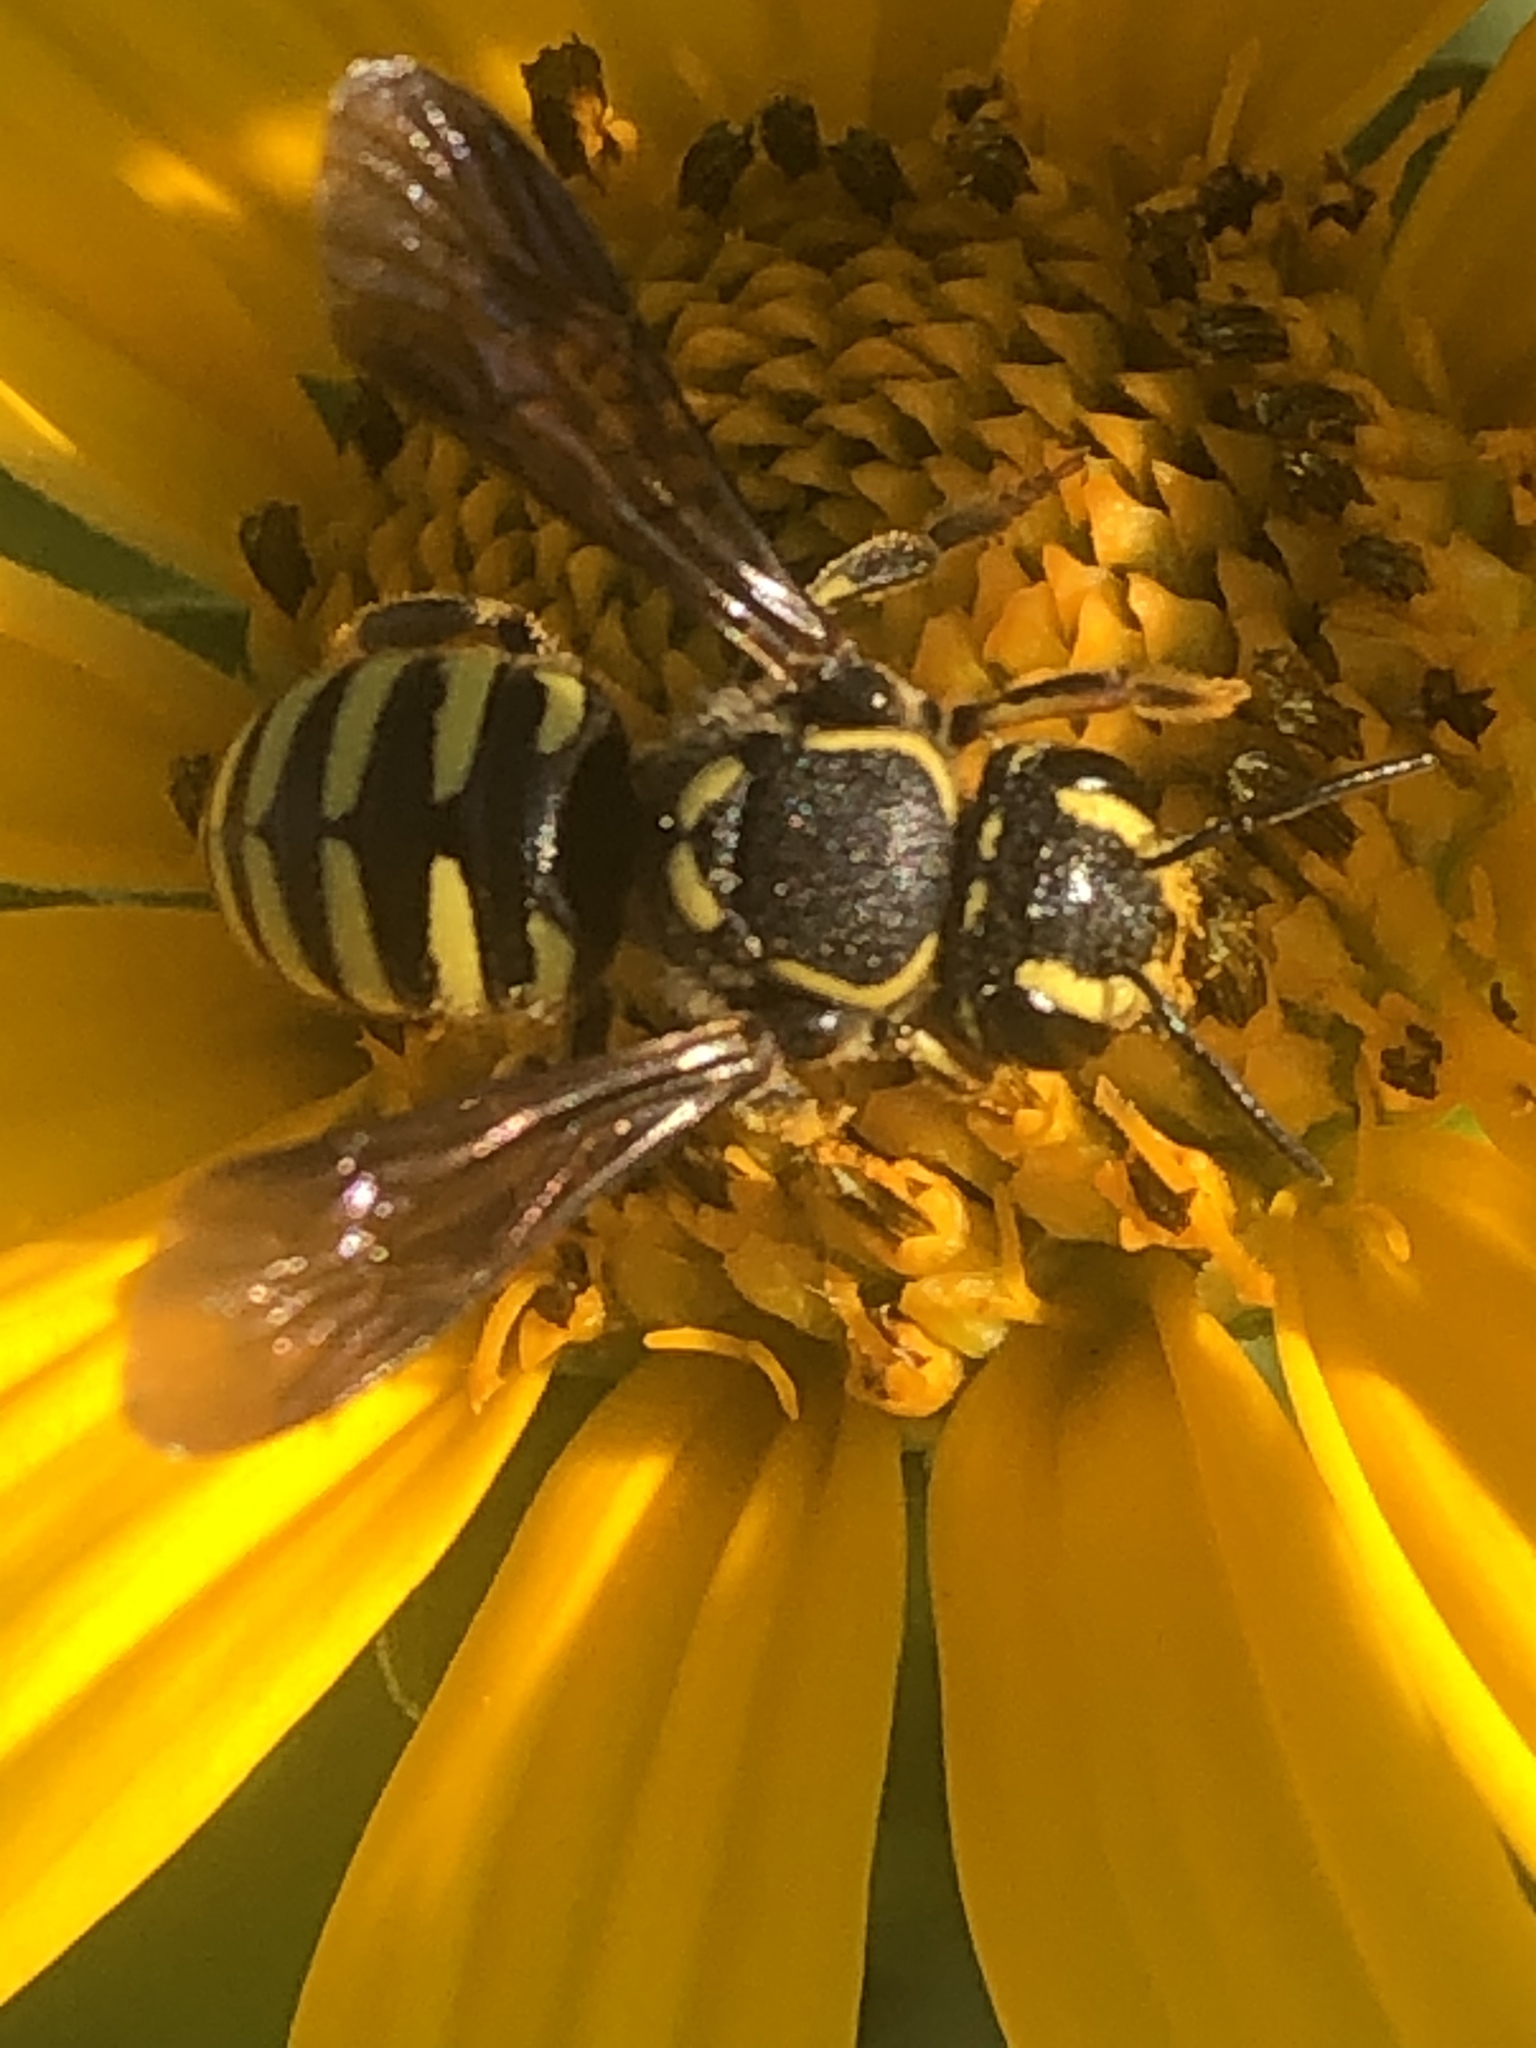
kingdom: Animalia
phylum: Arthropoda
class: Insecta
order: Hymenoptera
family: Megachilidae
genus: Paranthidium
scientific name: Paranthidium jugatorium
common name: Sunflower burrowing-resin bee
